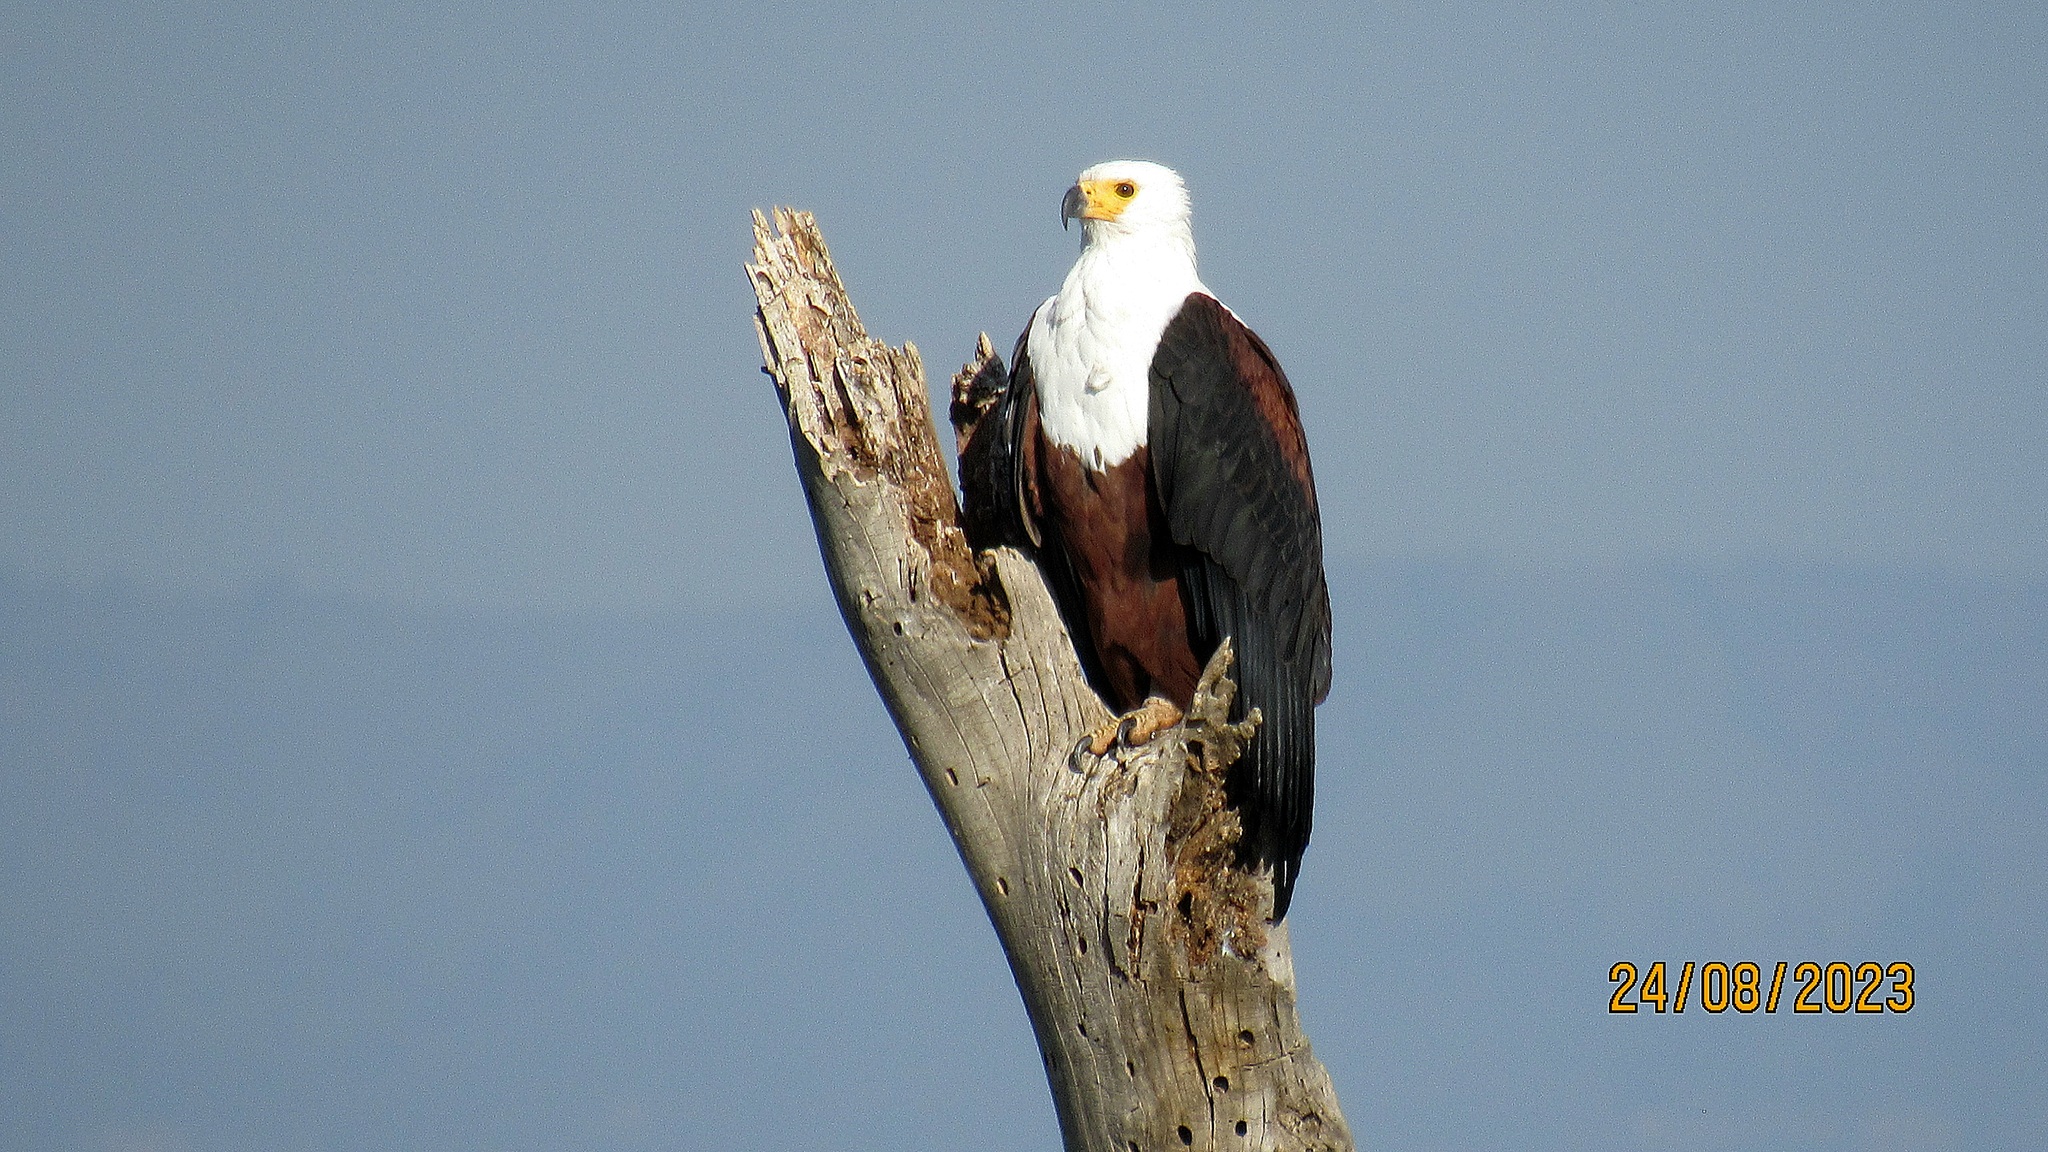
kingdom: Animalia
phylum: Chordata
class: Aves
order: Accipitriformes
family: Accipitridae
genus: Haliaeetus
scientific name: Haliaeetus vocifer
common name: African fish eagle
